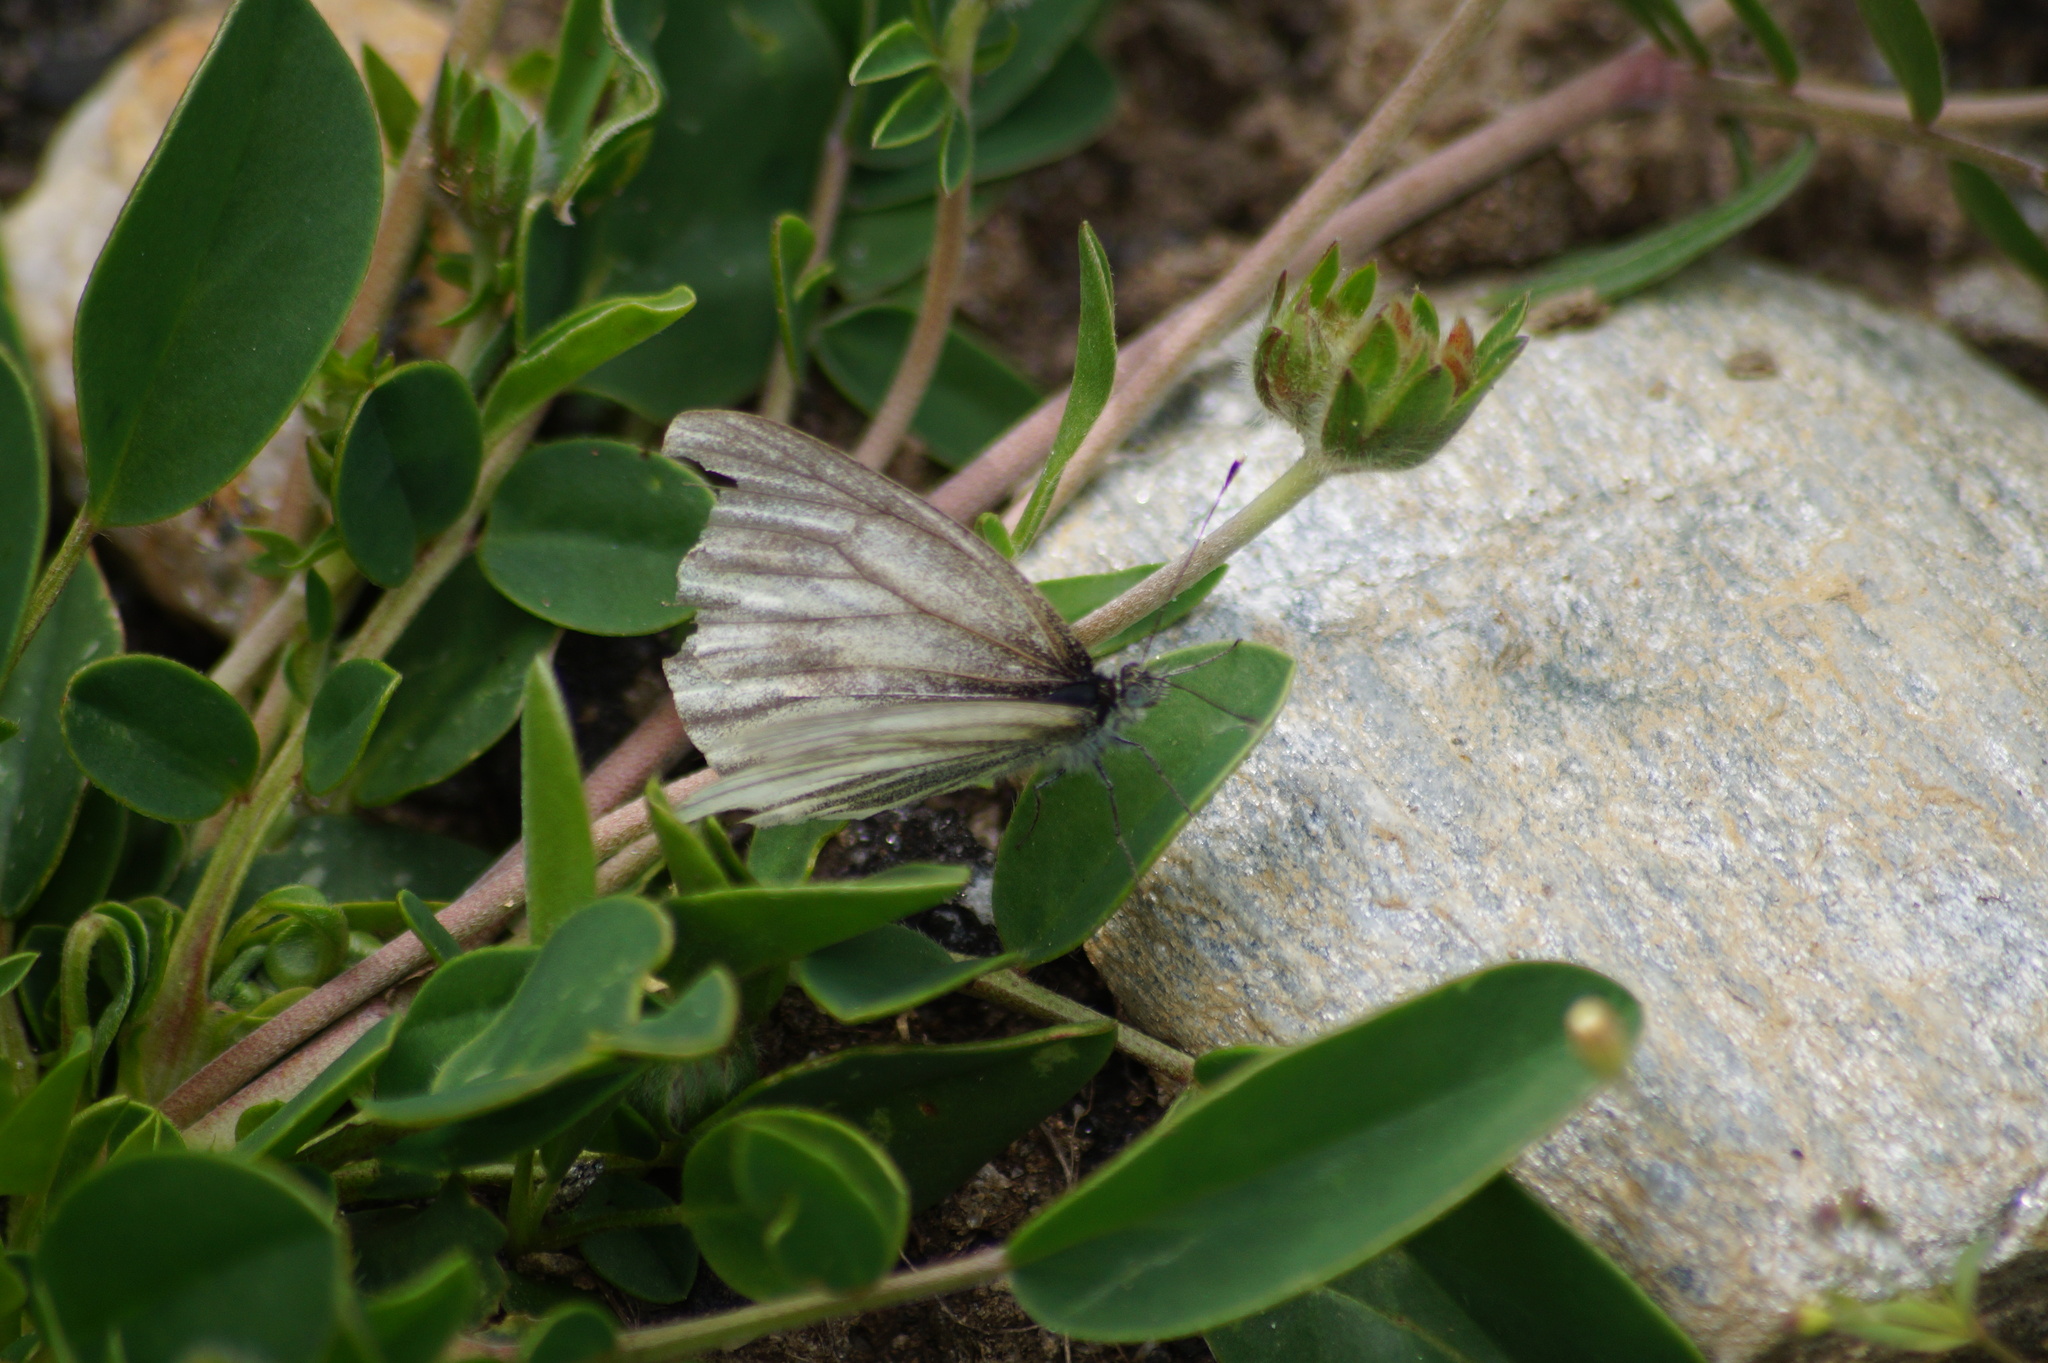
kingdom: Animalia
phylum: Arthropoda
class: Insecta
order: Lepidoptera
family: Pieridae
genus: Pieris
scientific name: Pieris bryoniae
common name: Mountain green-veined white
